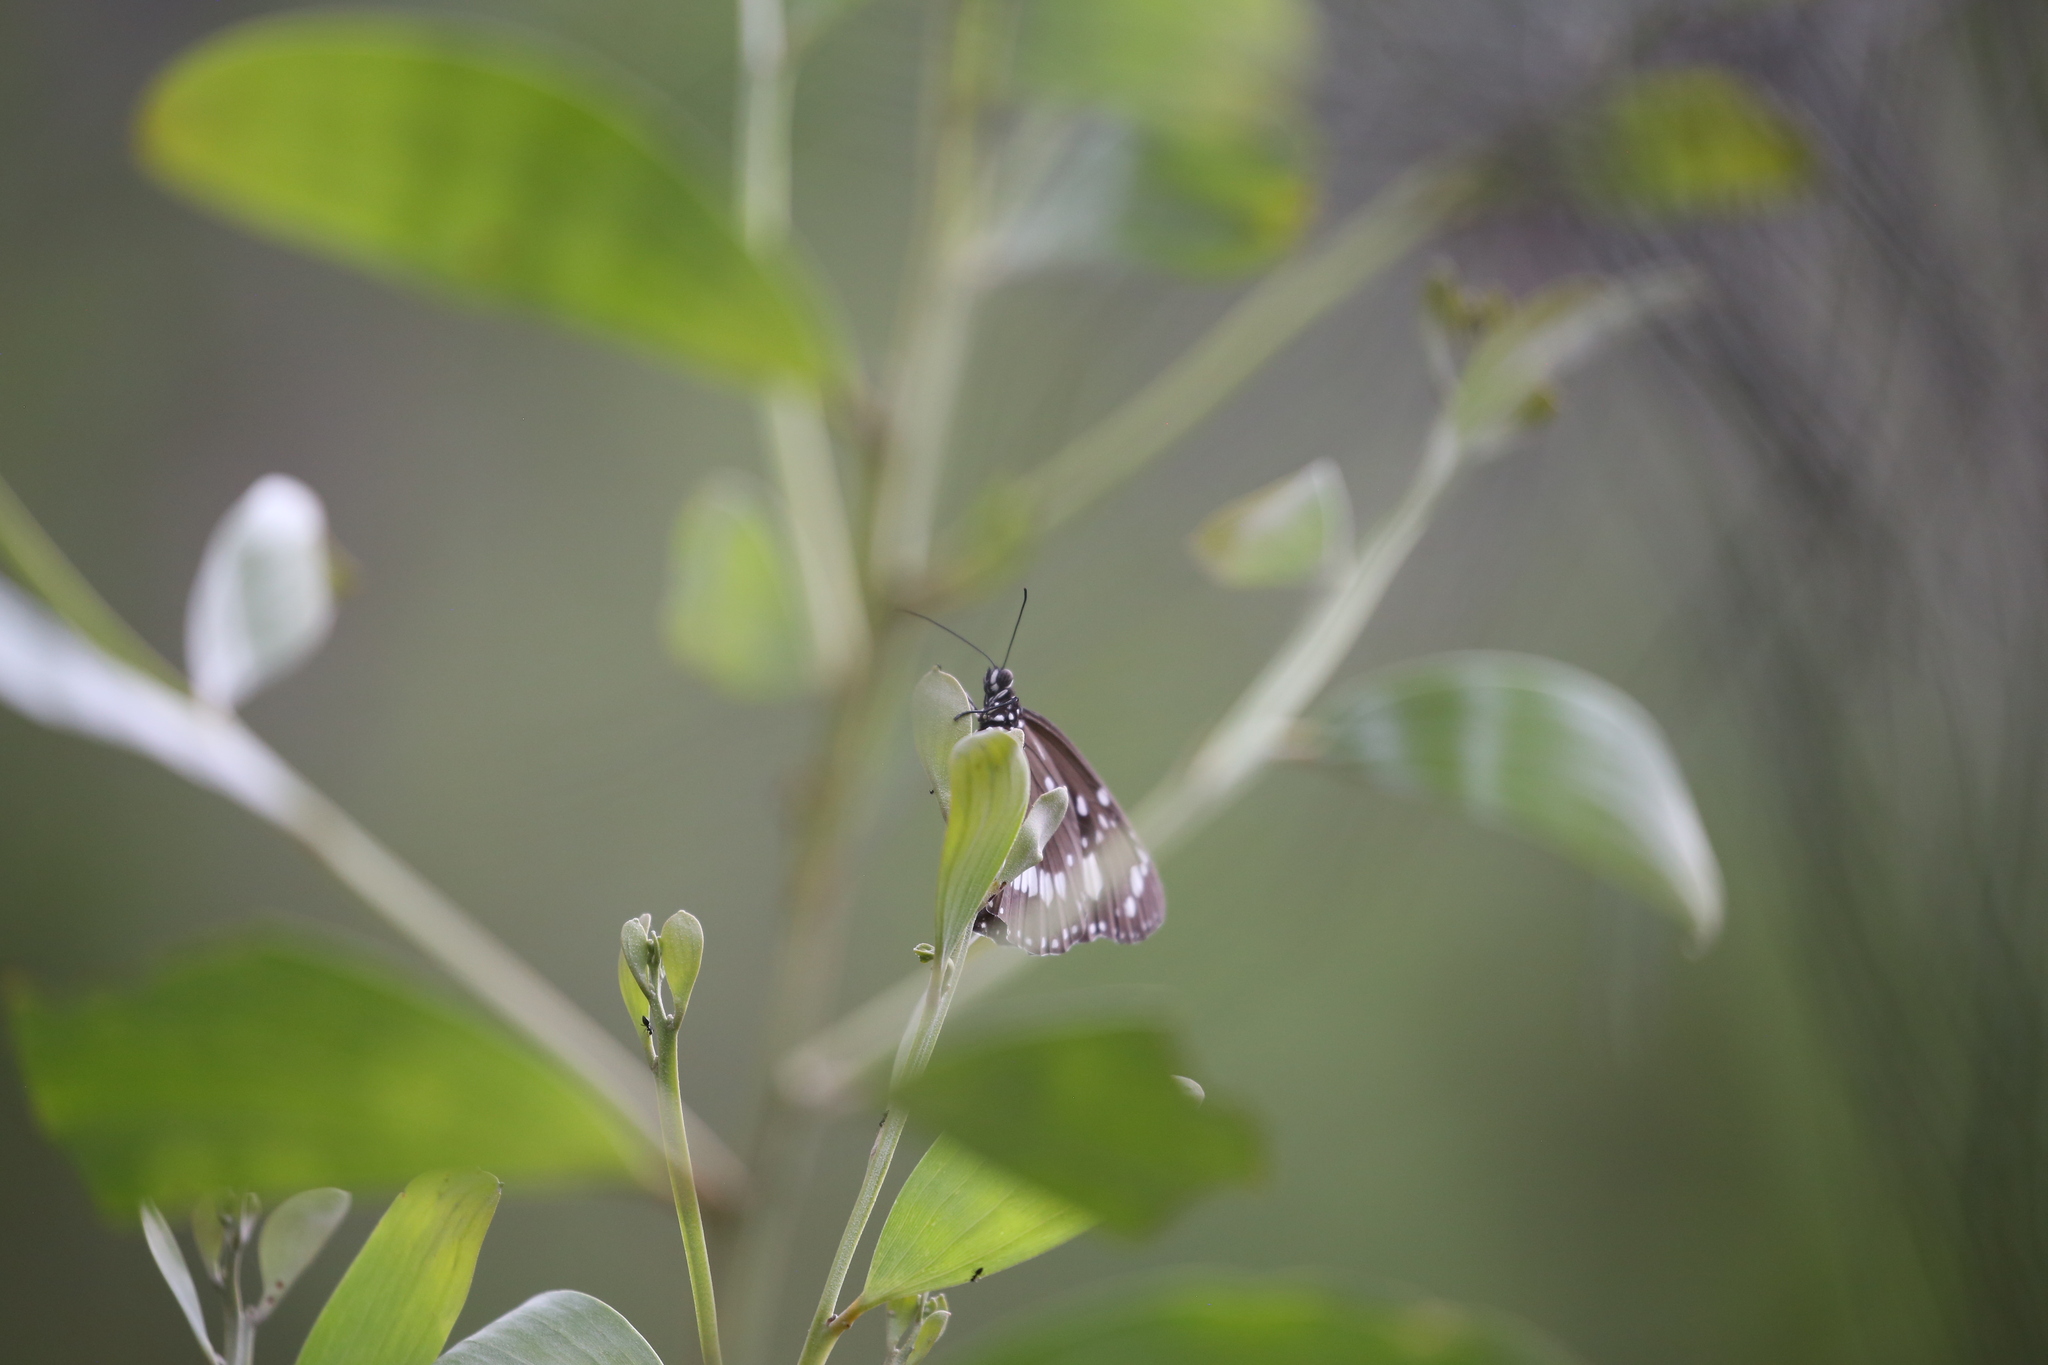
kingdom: Animalia
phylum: Arthropoda
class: Insecta
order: Lepidoptera
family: Nymphalidae
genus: Euploea
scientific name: Euploea core
